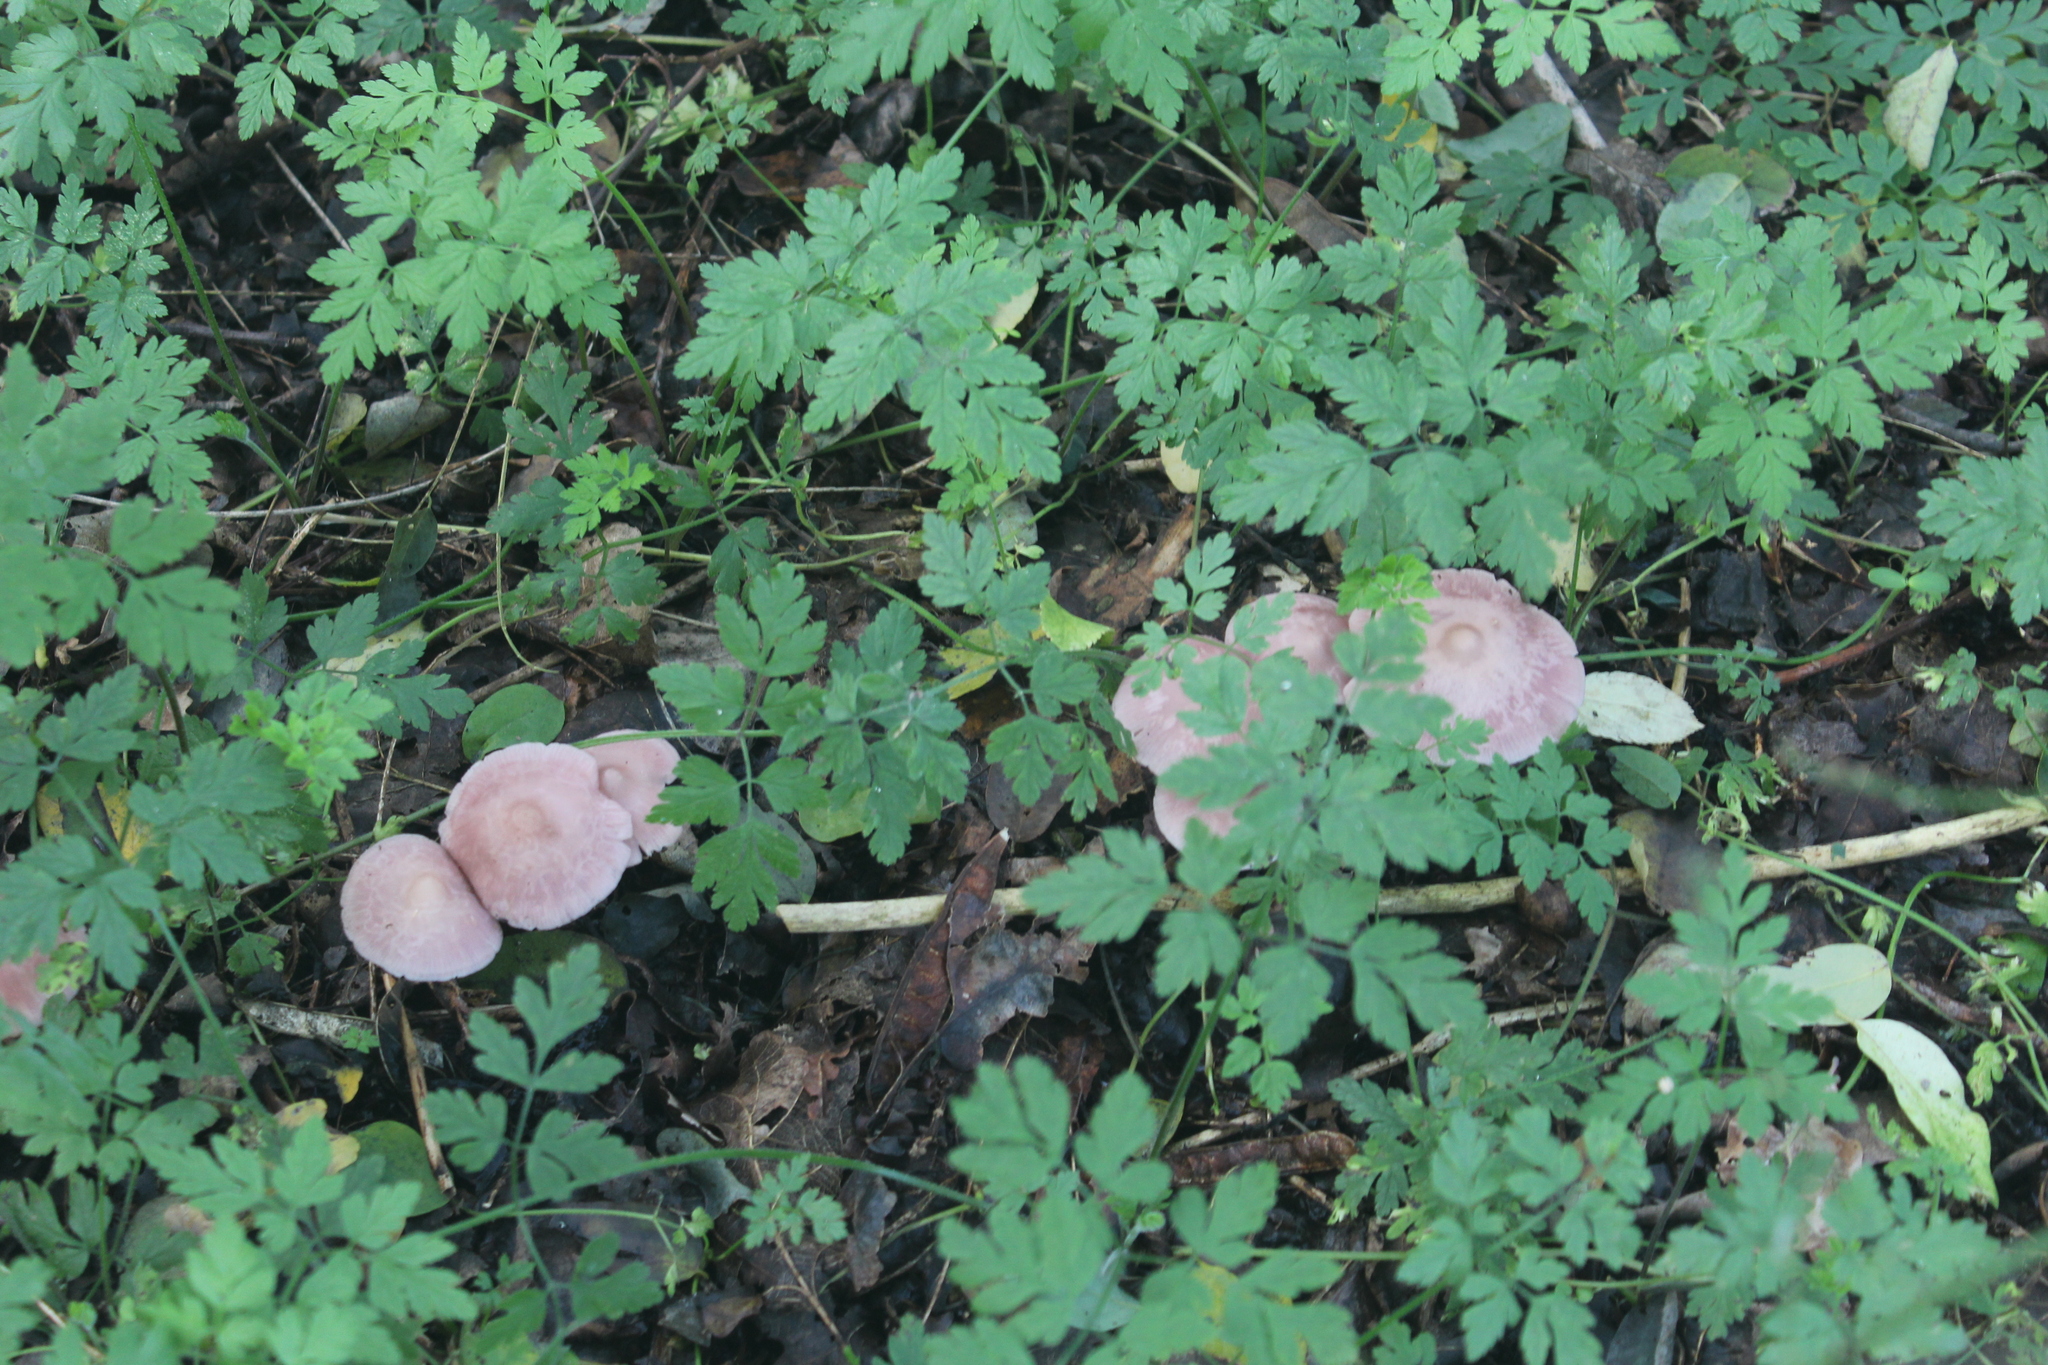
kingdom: Fungi
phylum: Basidiomycota
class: Agaricomycetes
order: Agaricales
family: Mycenaceae
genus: Mycena
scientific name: Mycena rosea
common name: Rosy bonnet
